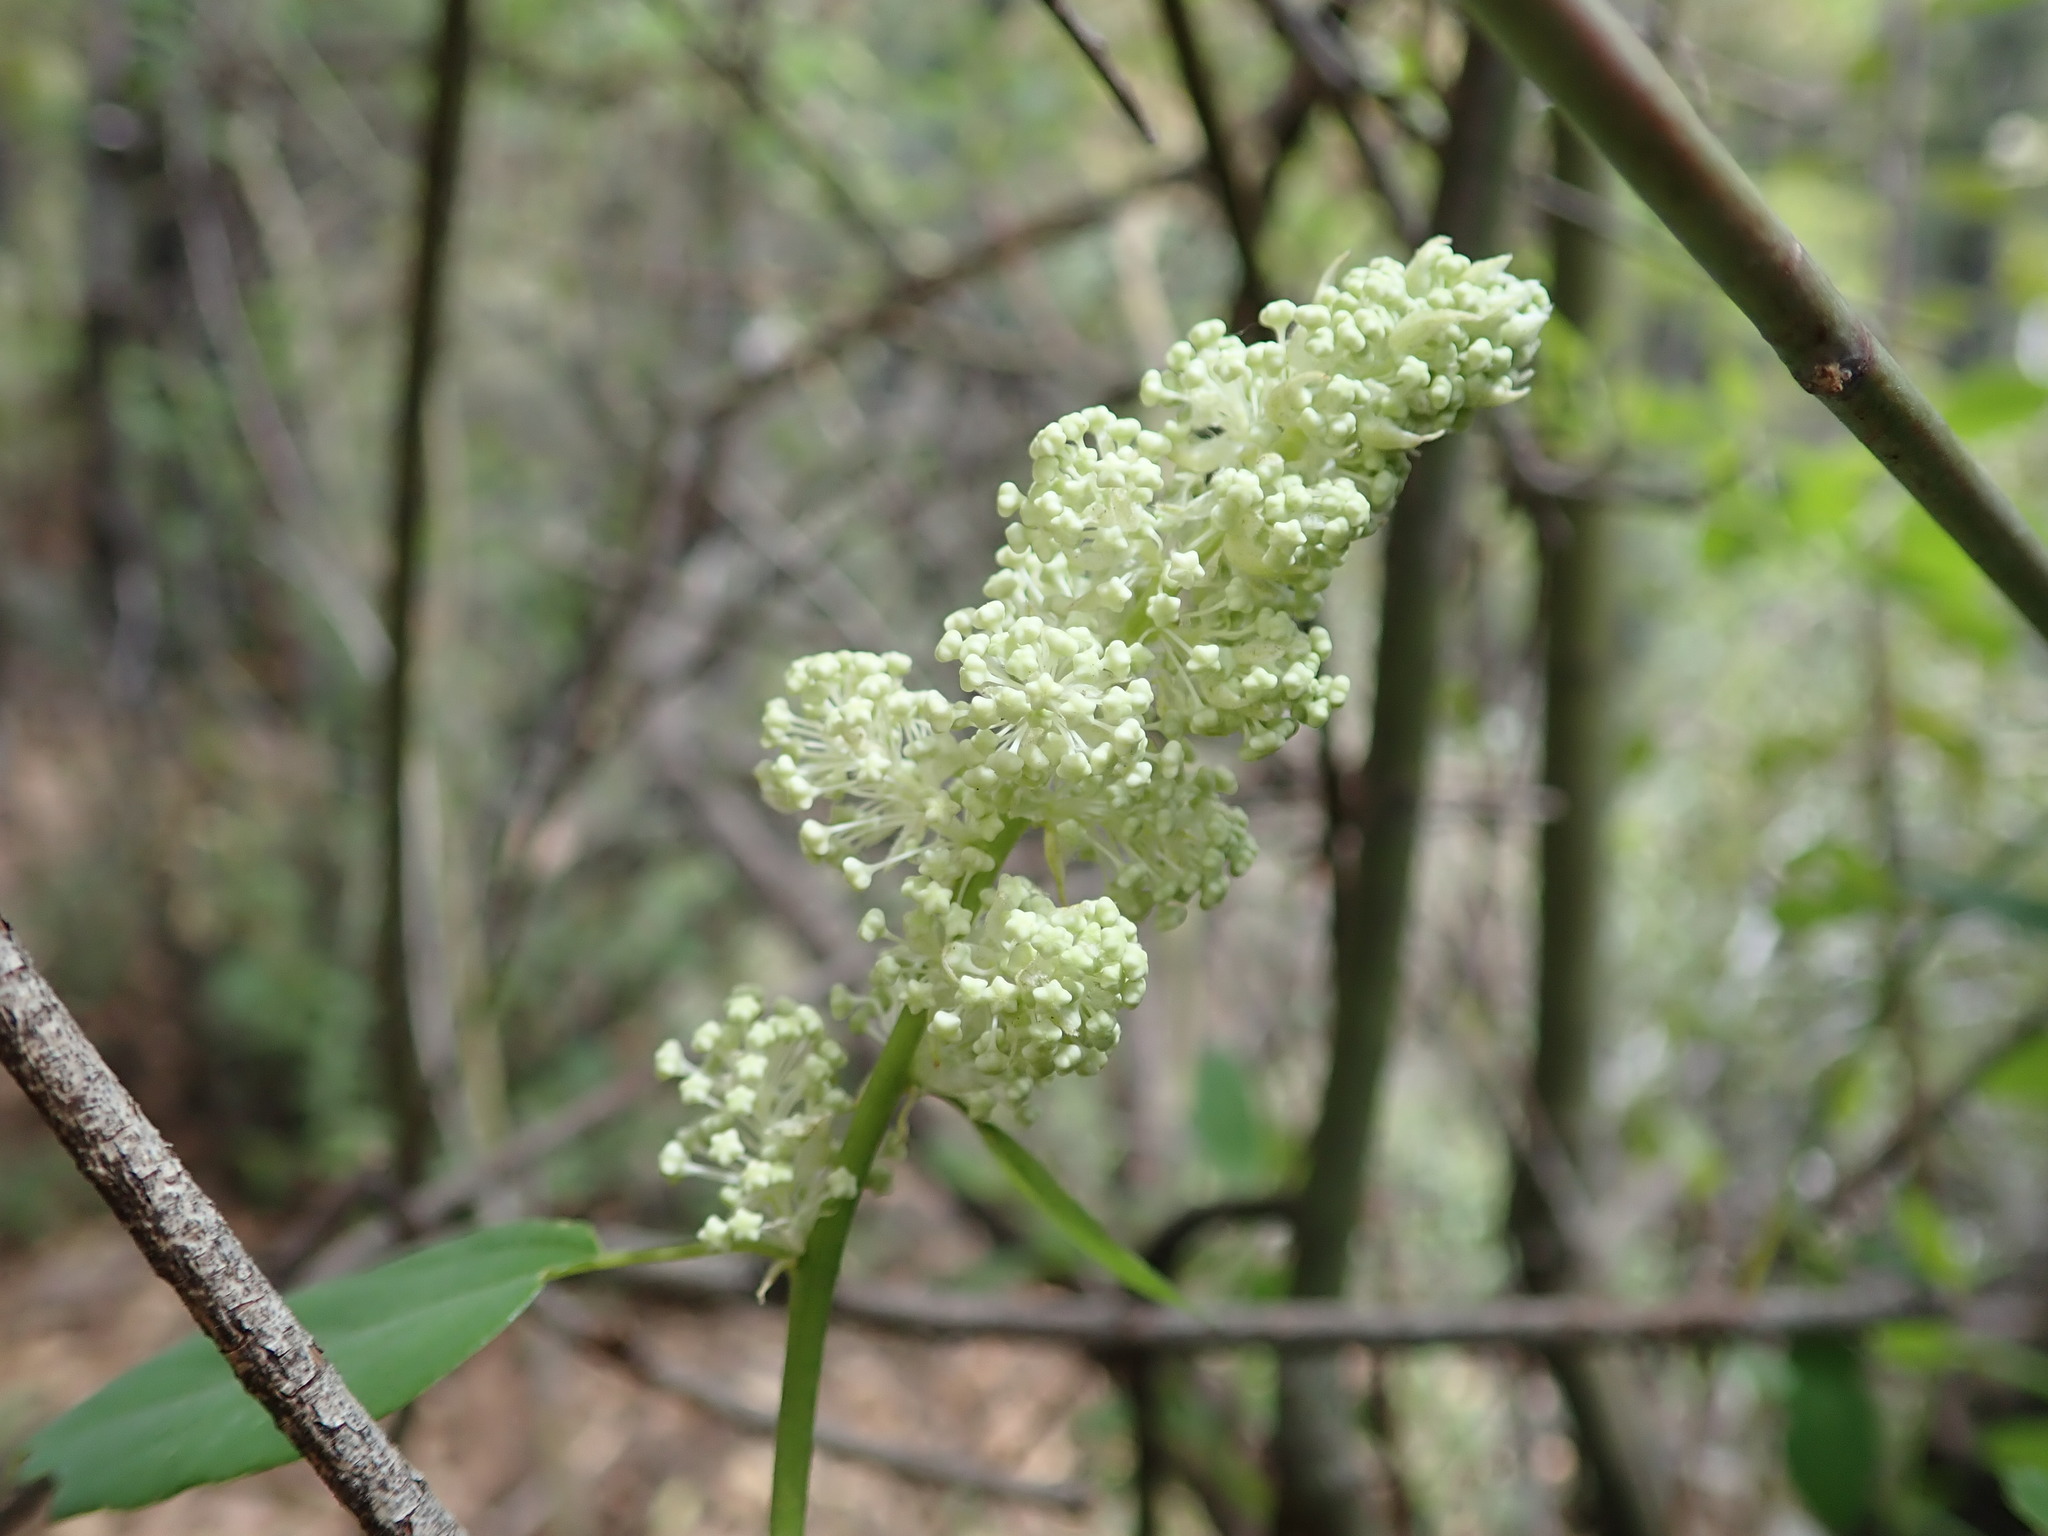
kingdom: Plantae
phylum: Tracheophyta
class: Magnoliopsida
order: Rosales
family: Rhamnaceae
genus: Ceanothus
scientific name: Ceanothus integerrimus
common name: Deerbrush ceanothus
